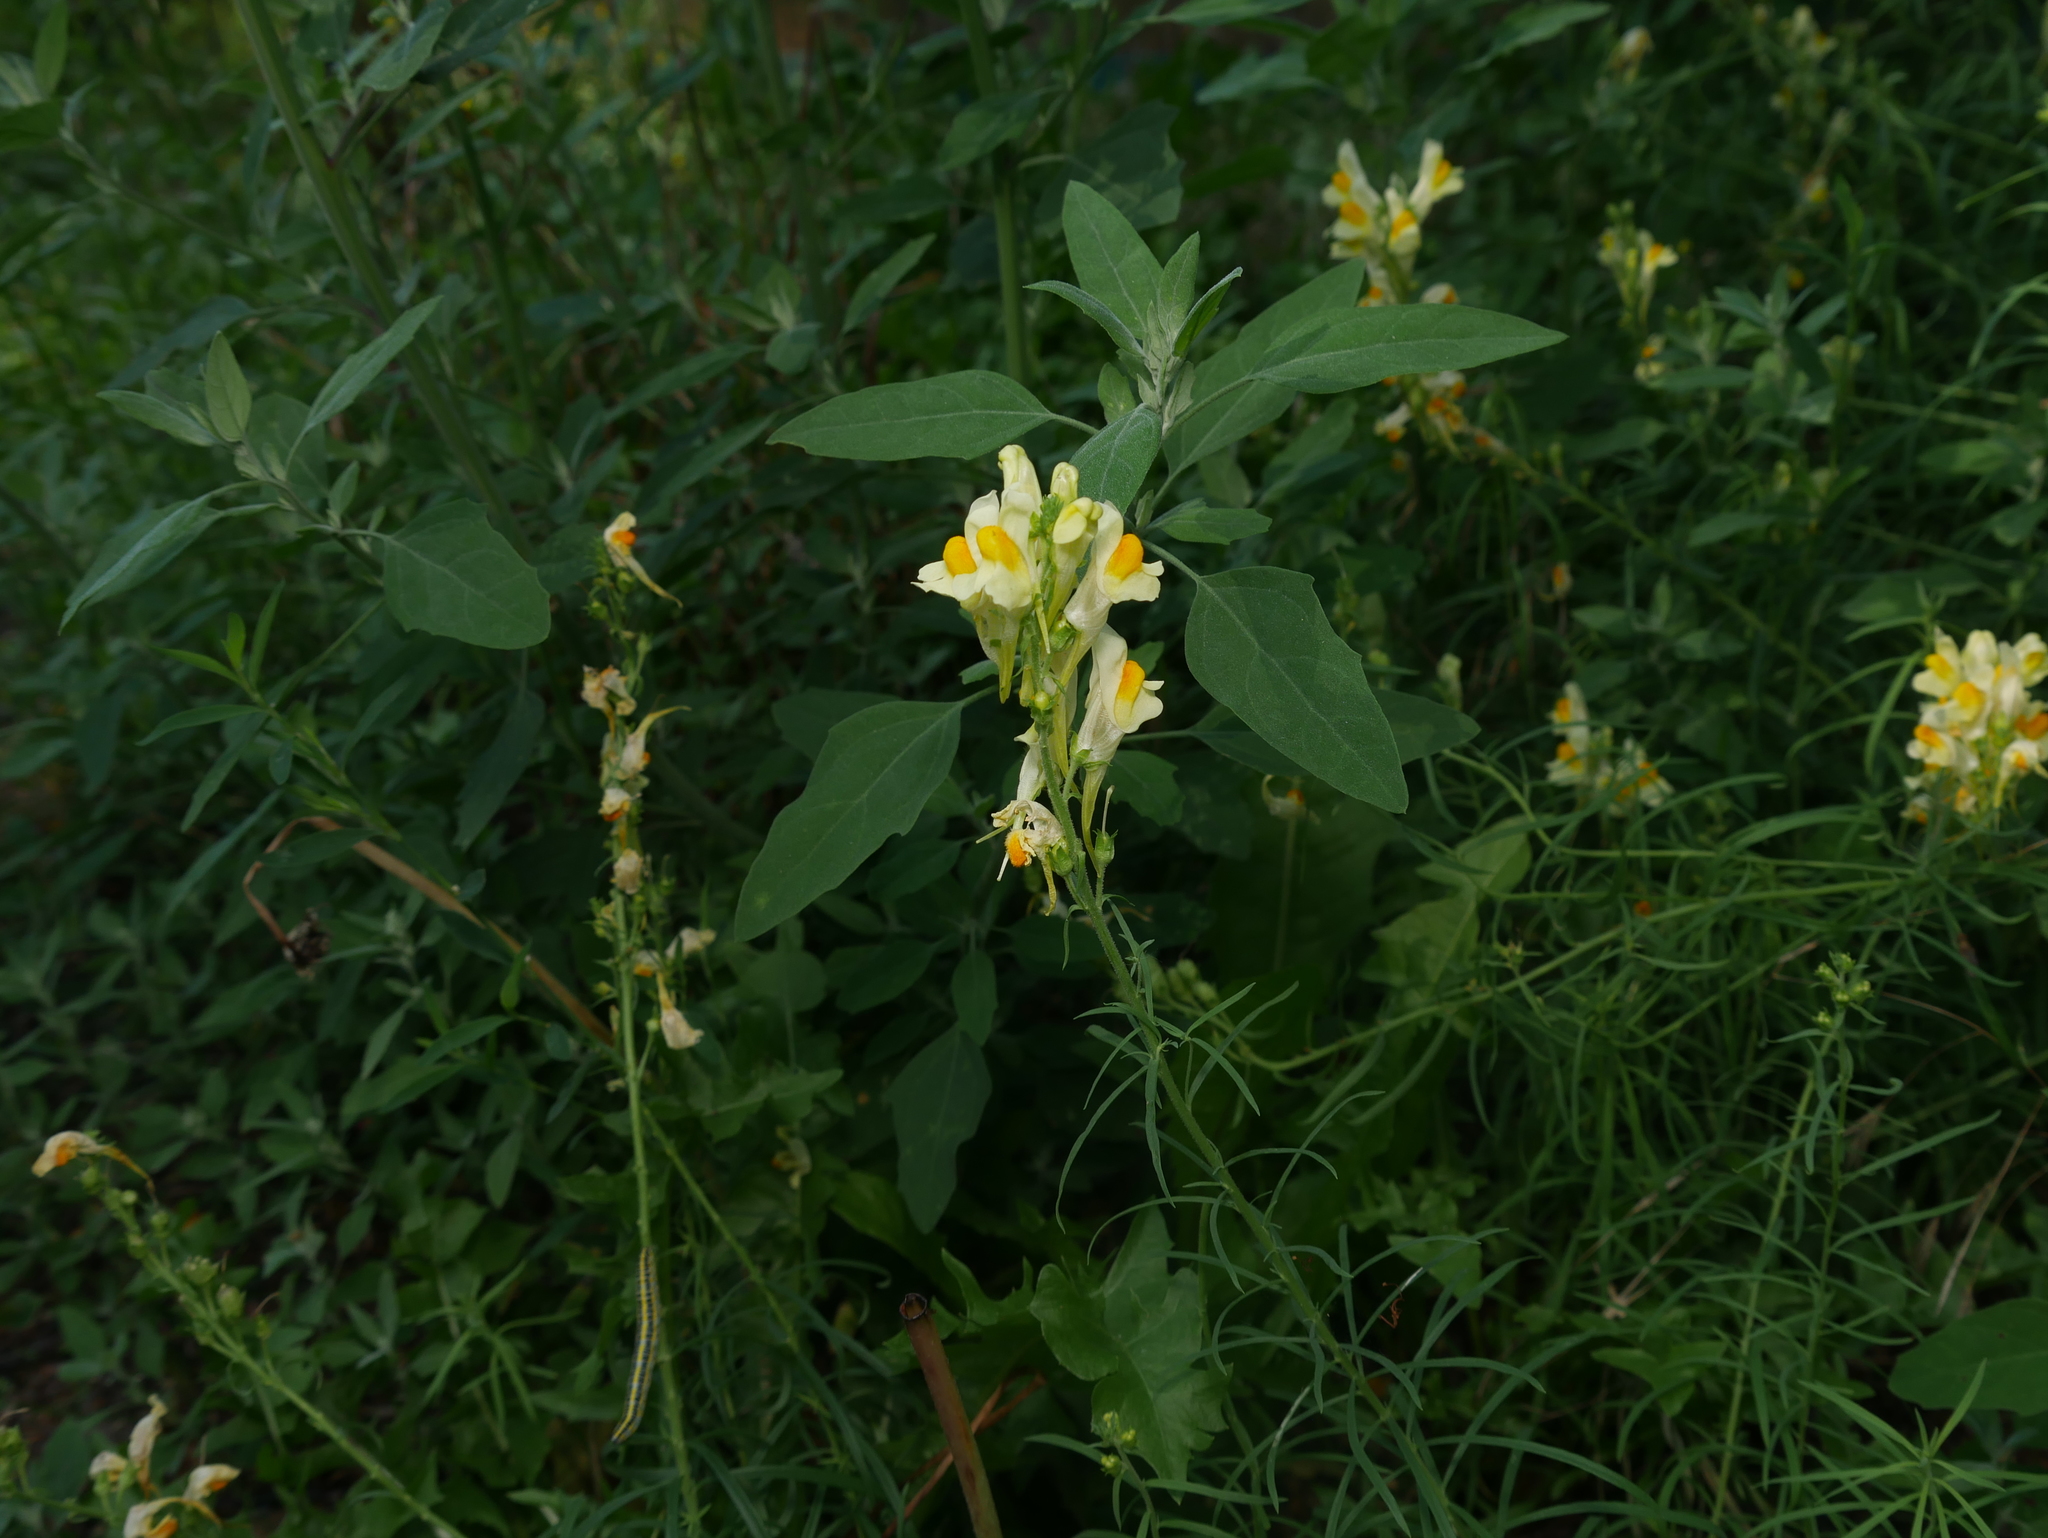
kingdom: Plantae
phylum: Tracheophyta
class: Magnoliopsida
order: Lamiales
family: Plantaginaceae
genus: Linaria
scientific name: Linaria vulgaris
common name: Butter and eggs
